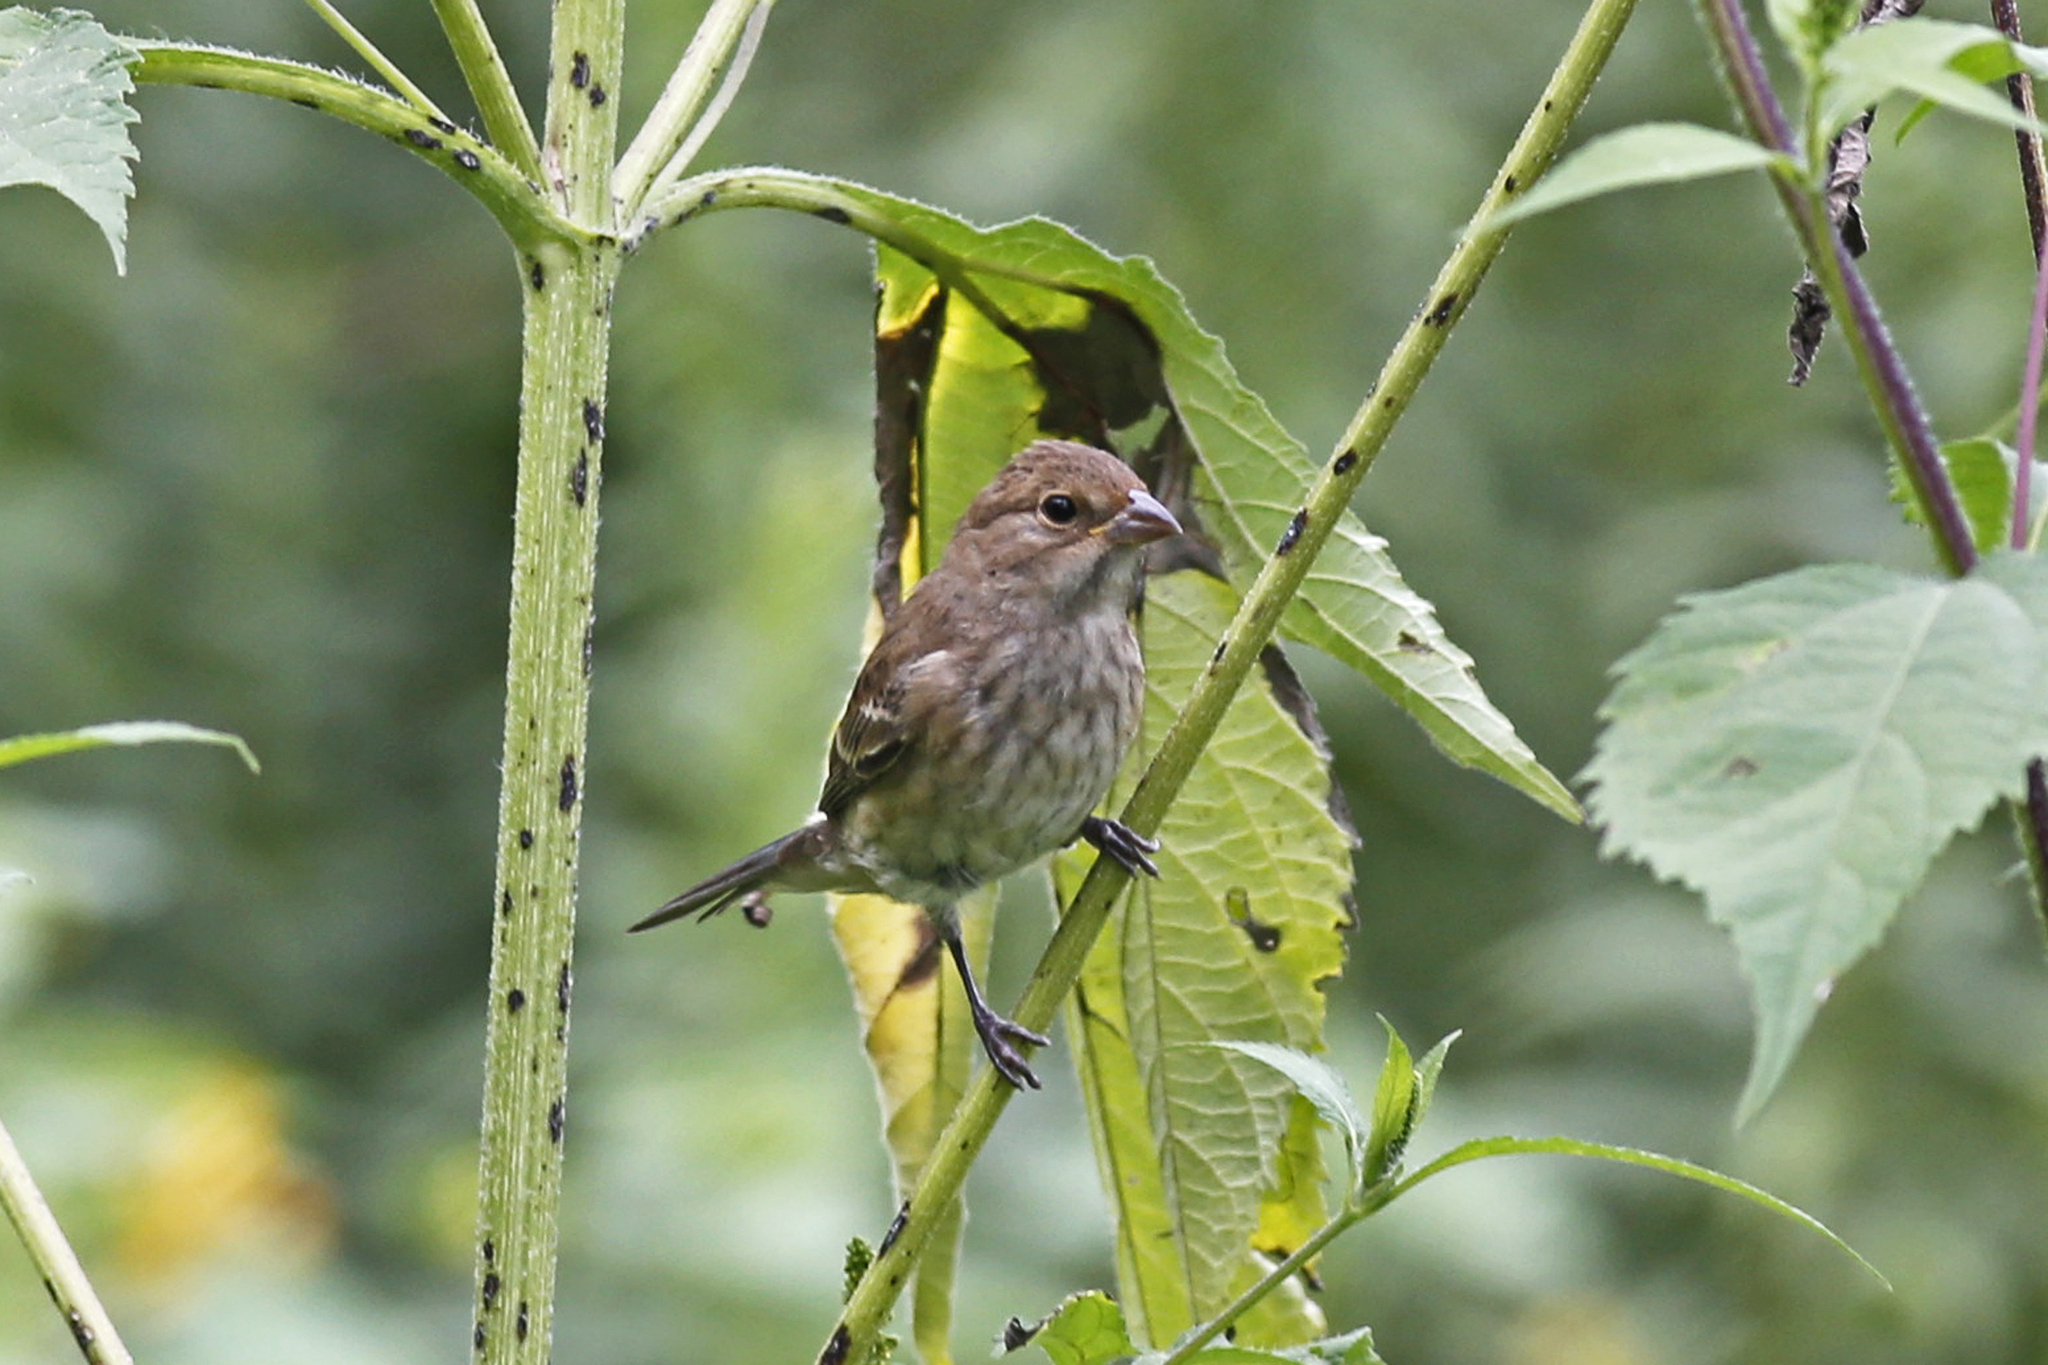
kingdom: Animalia
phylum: Chordata
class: Aves
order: Passeriformes
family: Cardinalidae
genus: Passerina
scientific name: Passerina cyanea
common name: Indigo bunting
